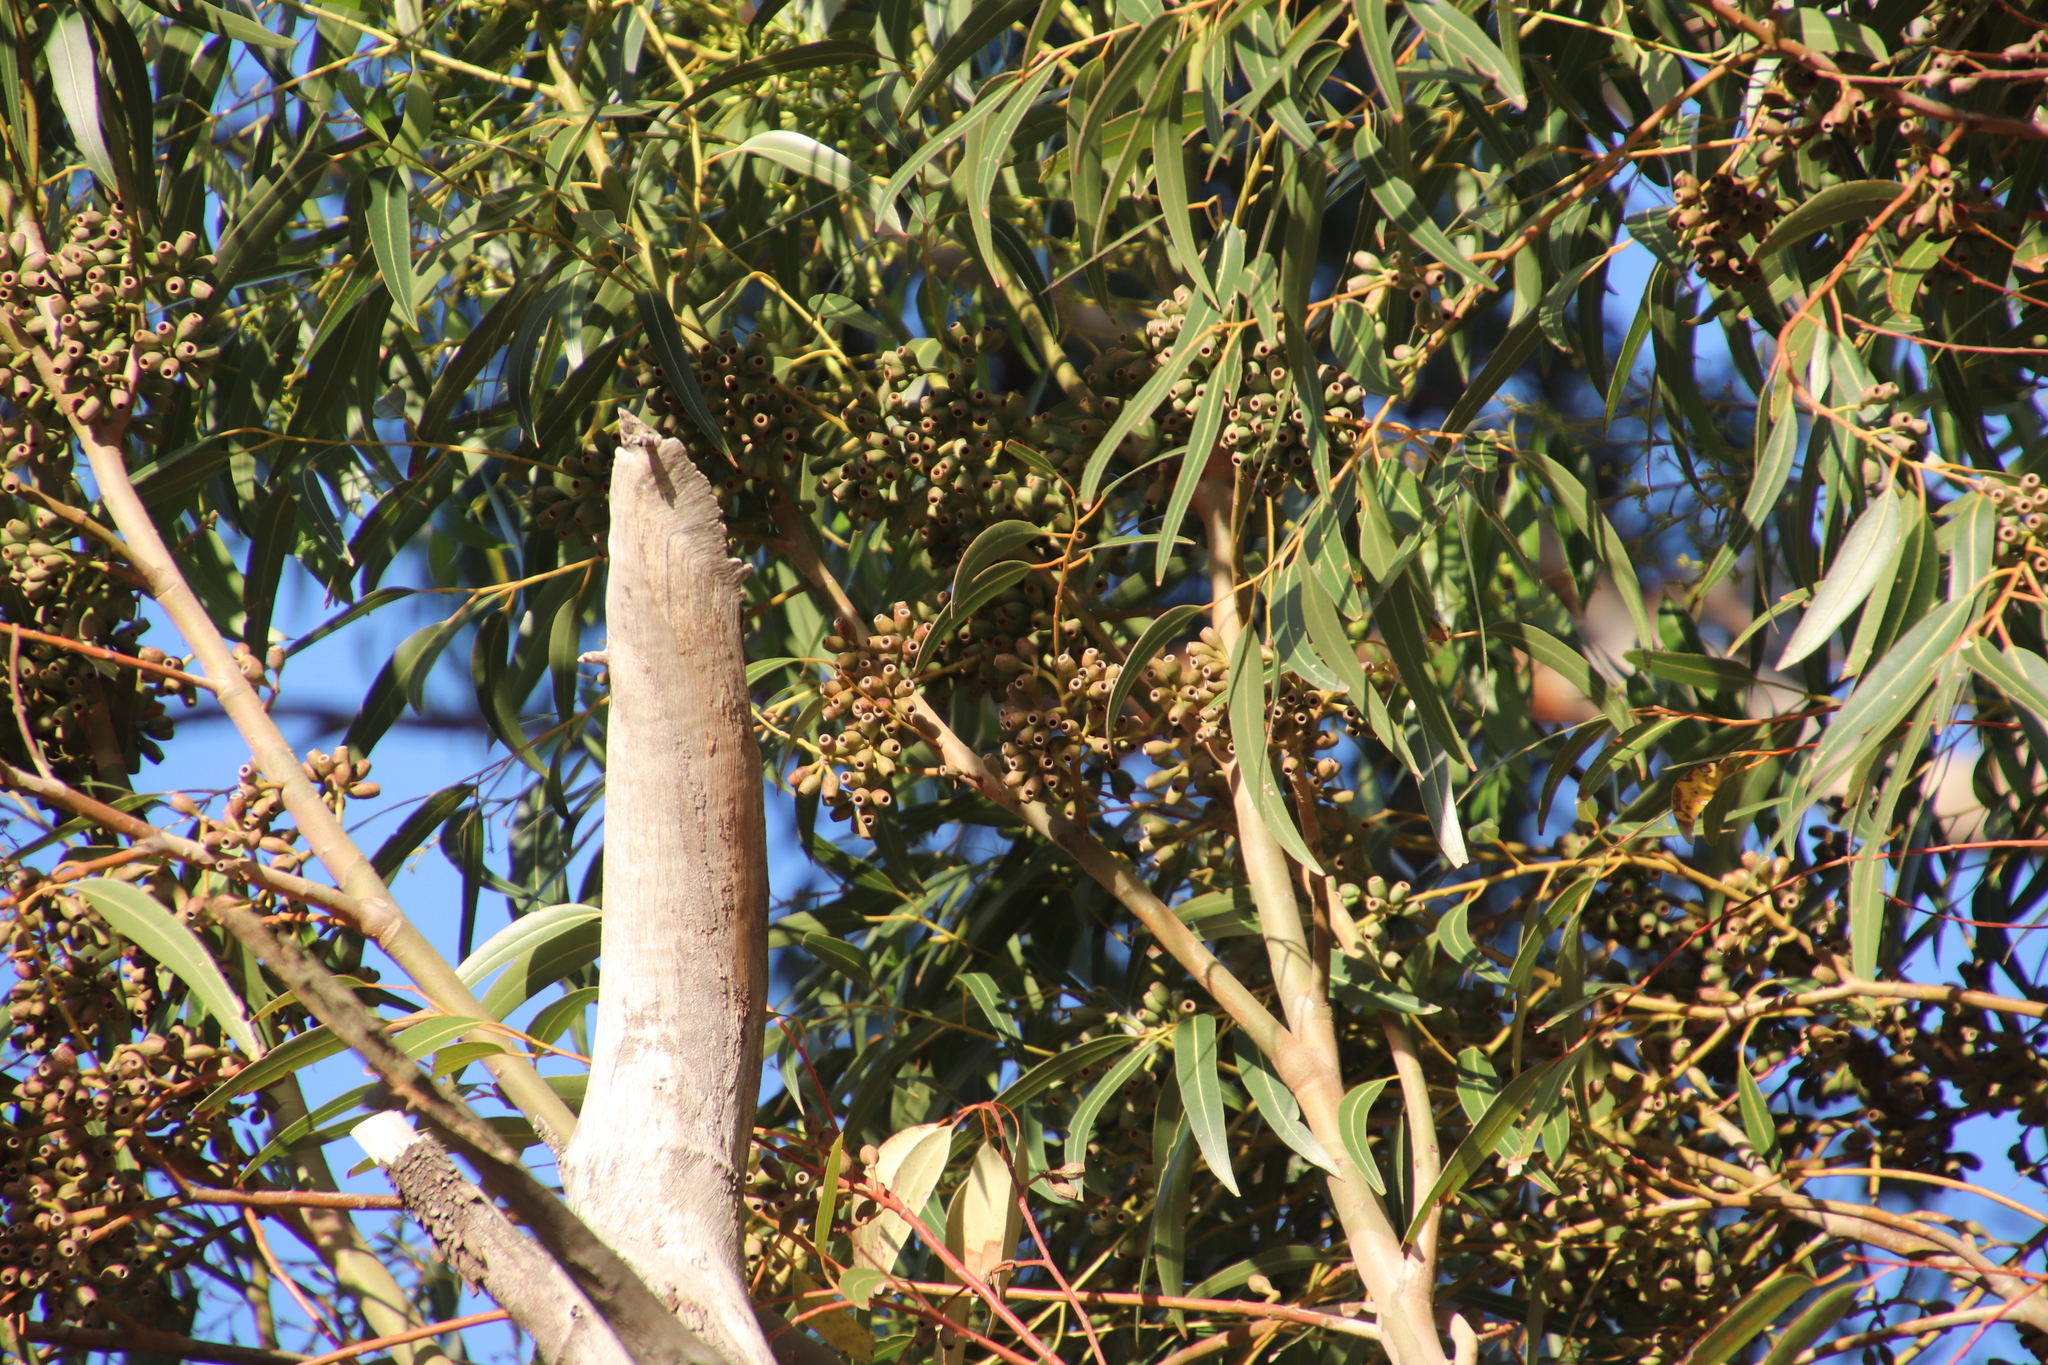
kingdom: Plantae
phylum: Tracheophyta
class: Magnoliopsida
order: Myrtales
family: Myrtaceae
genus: Eucalyptus
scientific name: Eucalyptus cladocalyx
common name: Sugargum
